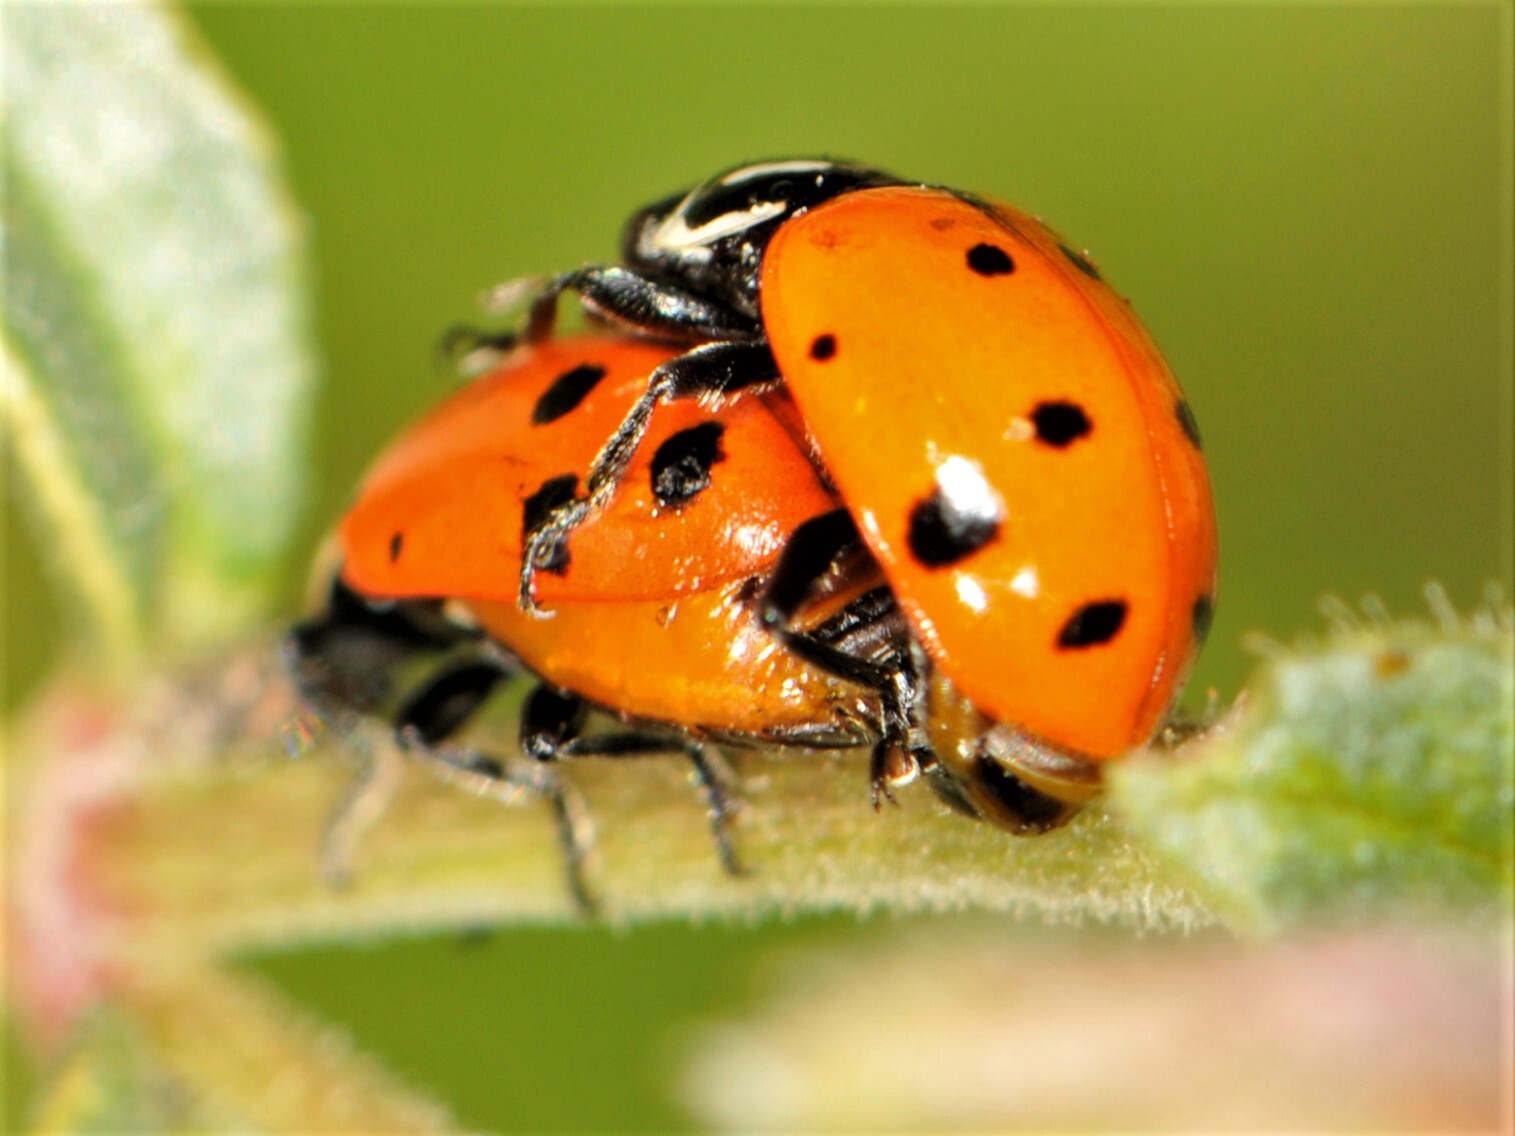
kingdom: Animalia
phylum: Arthropoda
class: Insecta
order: Coleoptera
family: Coccinellidae
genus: Hippodamia
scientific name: Hippodamia convergens
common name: Convergent lady beetle
